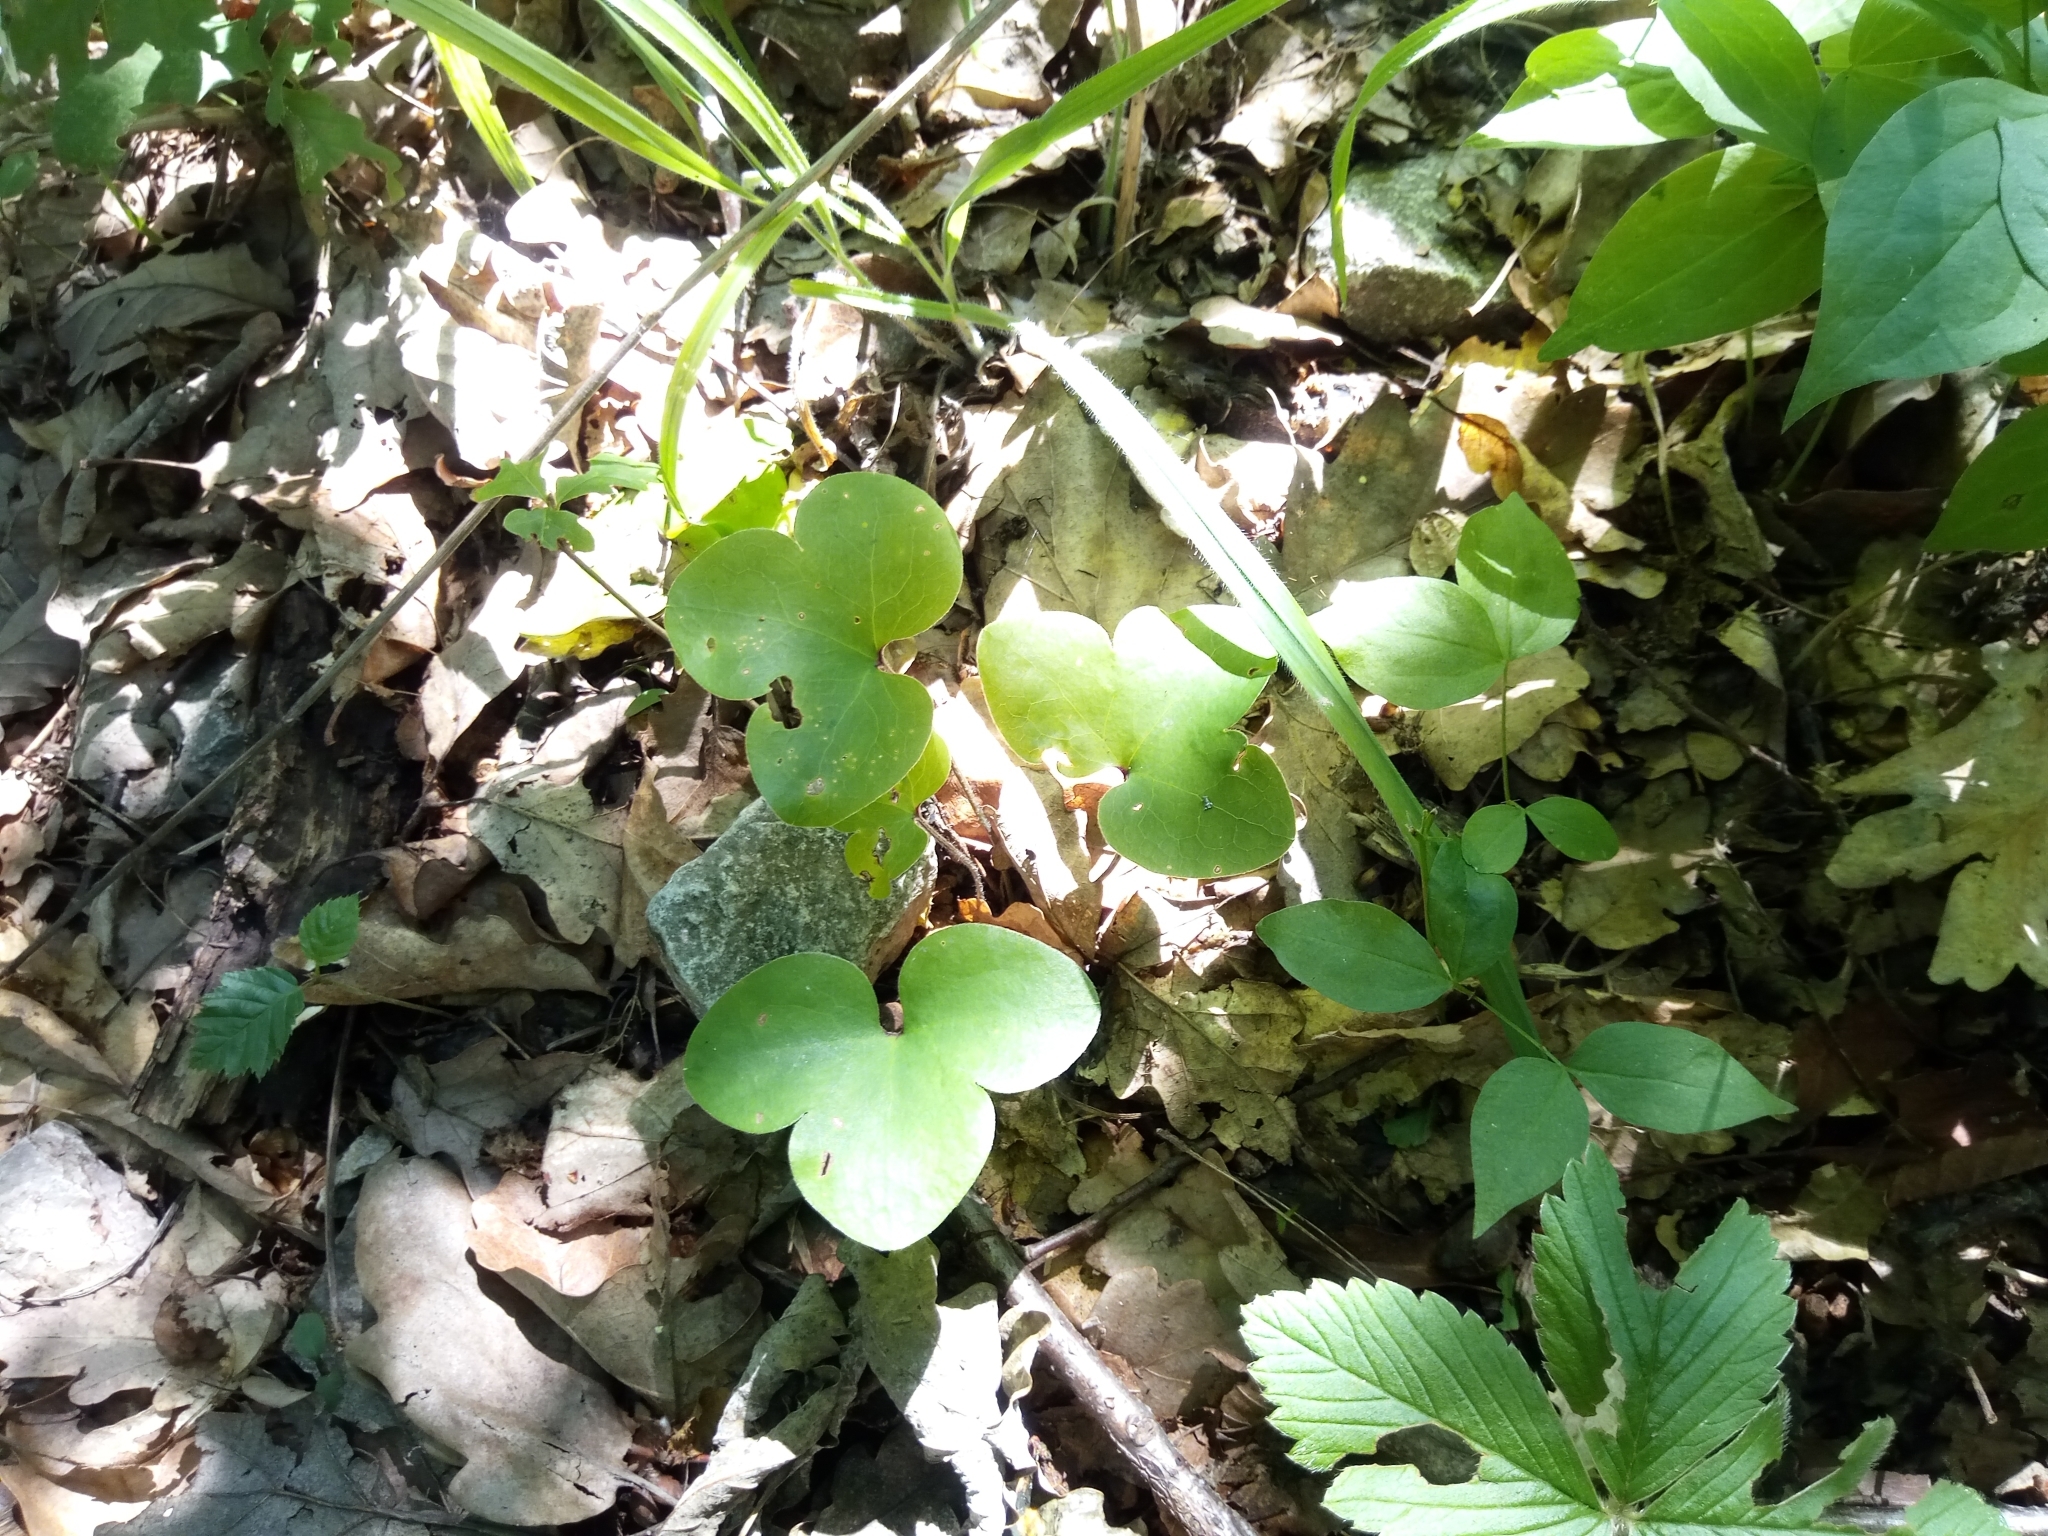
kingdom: Plantae
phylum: Tracheophyta
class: Magnoliopsida
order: Ranunculales
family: Ranunculaceae
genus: Hepatica
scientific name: Hepatica nobilis
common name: Liverleaf
